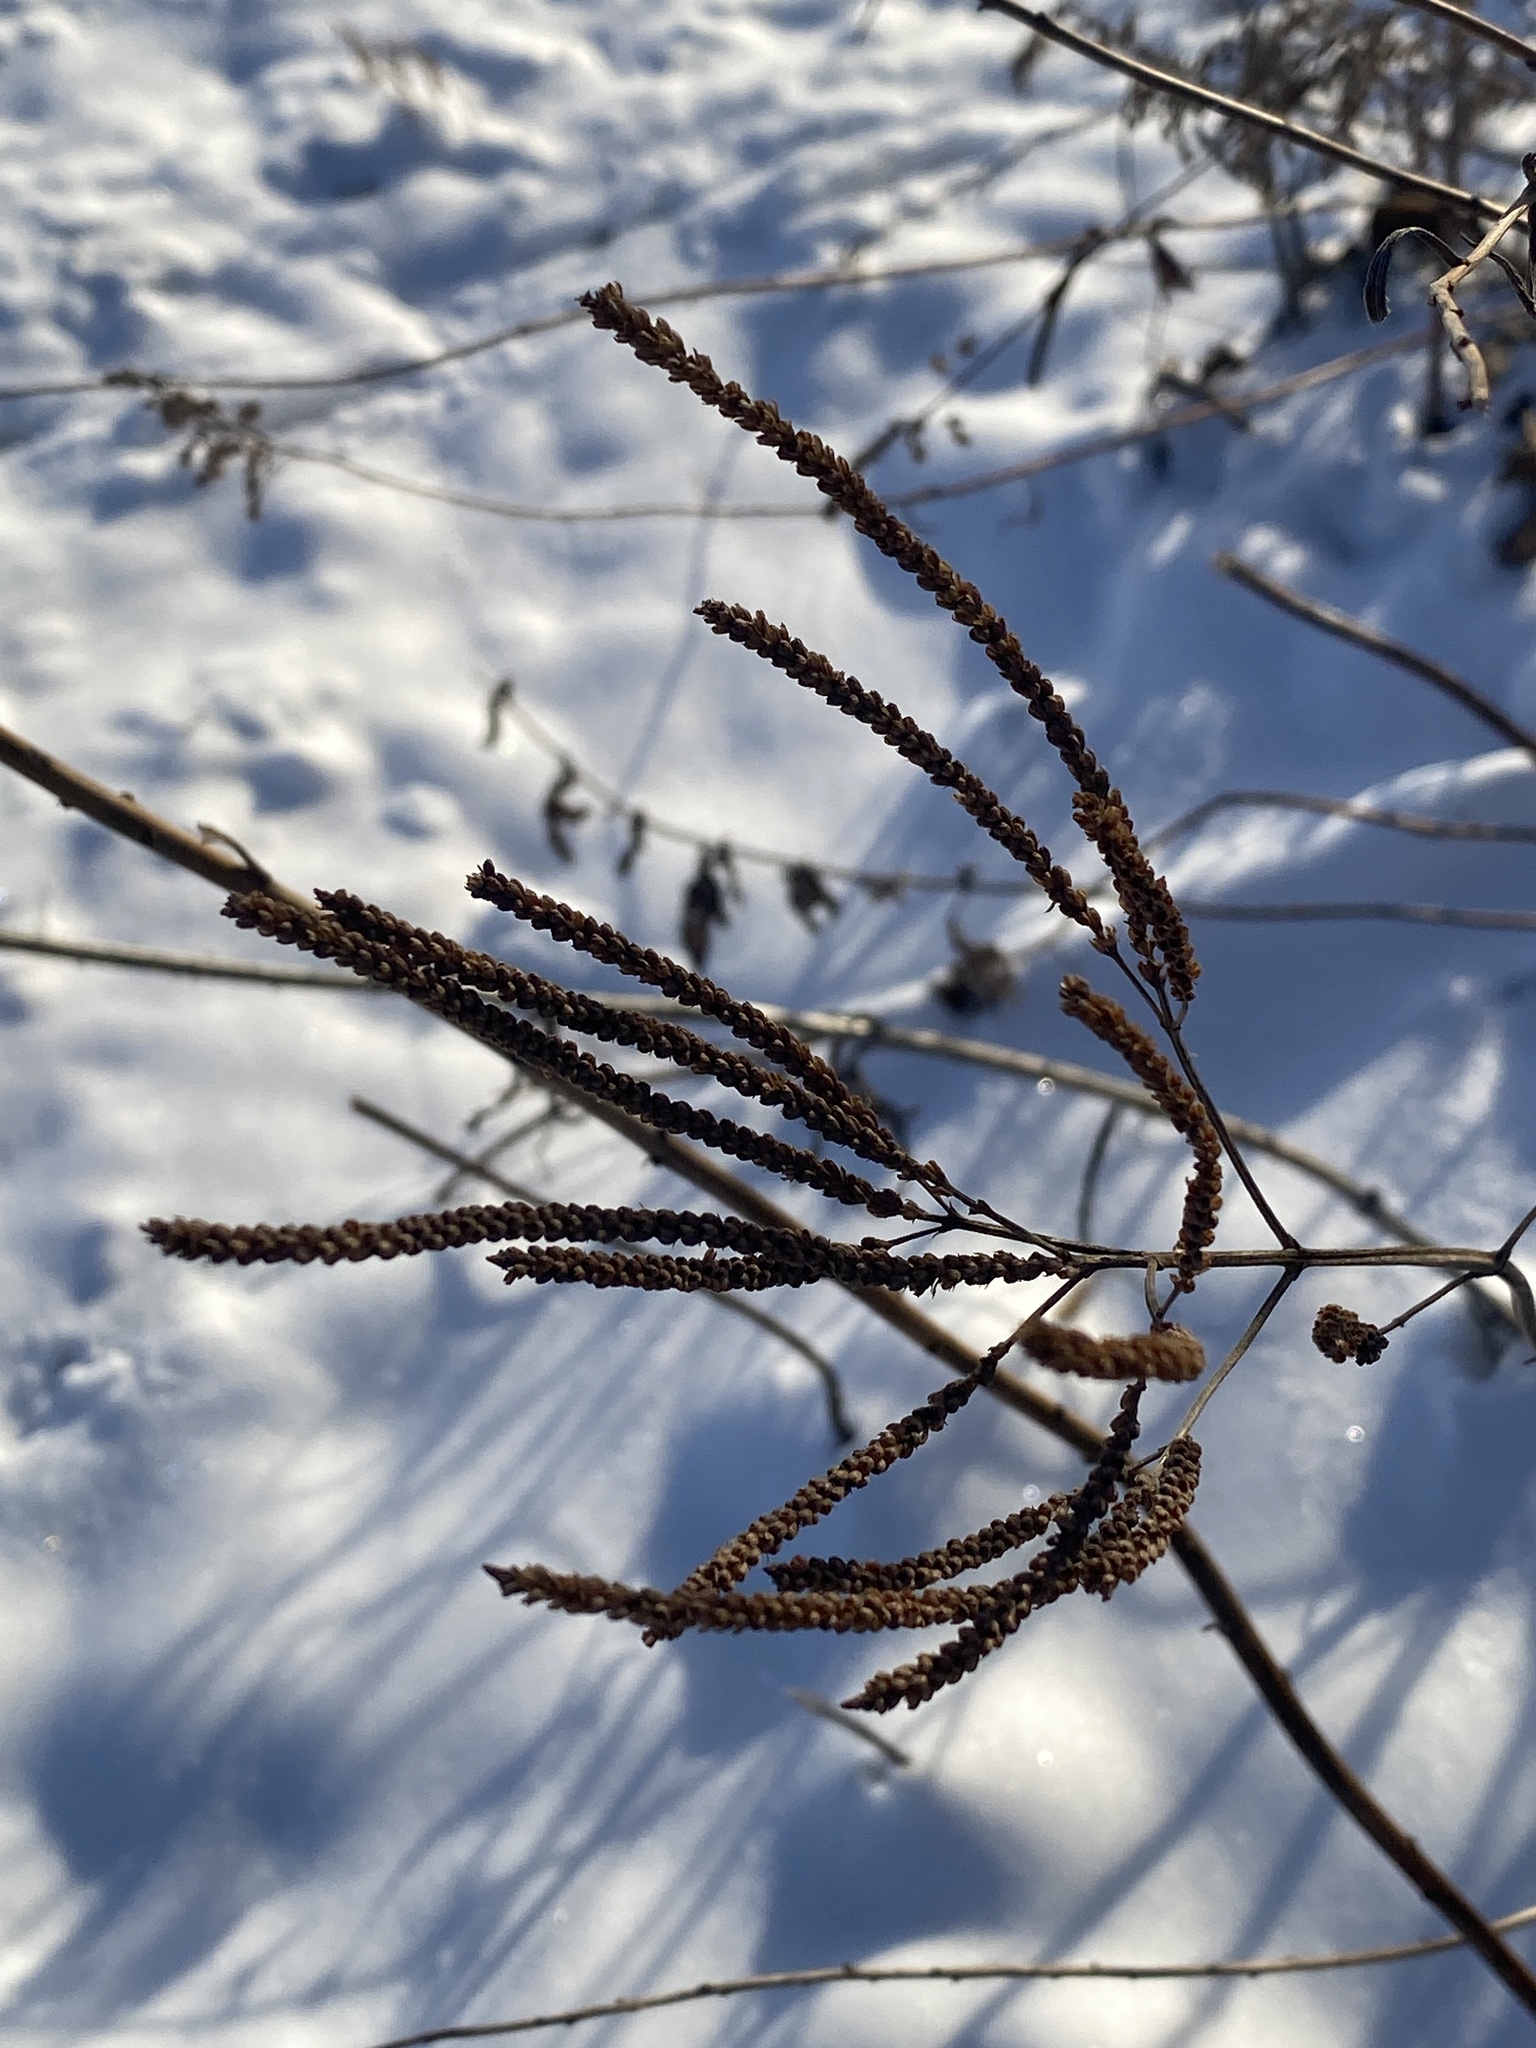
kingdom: Plantae
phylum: Tracheophyta
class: Magnoliopsida
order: Lamiales
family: Verbenaceae
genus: Verbena
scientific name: Verbena hastata
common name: American blue vervain
